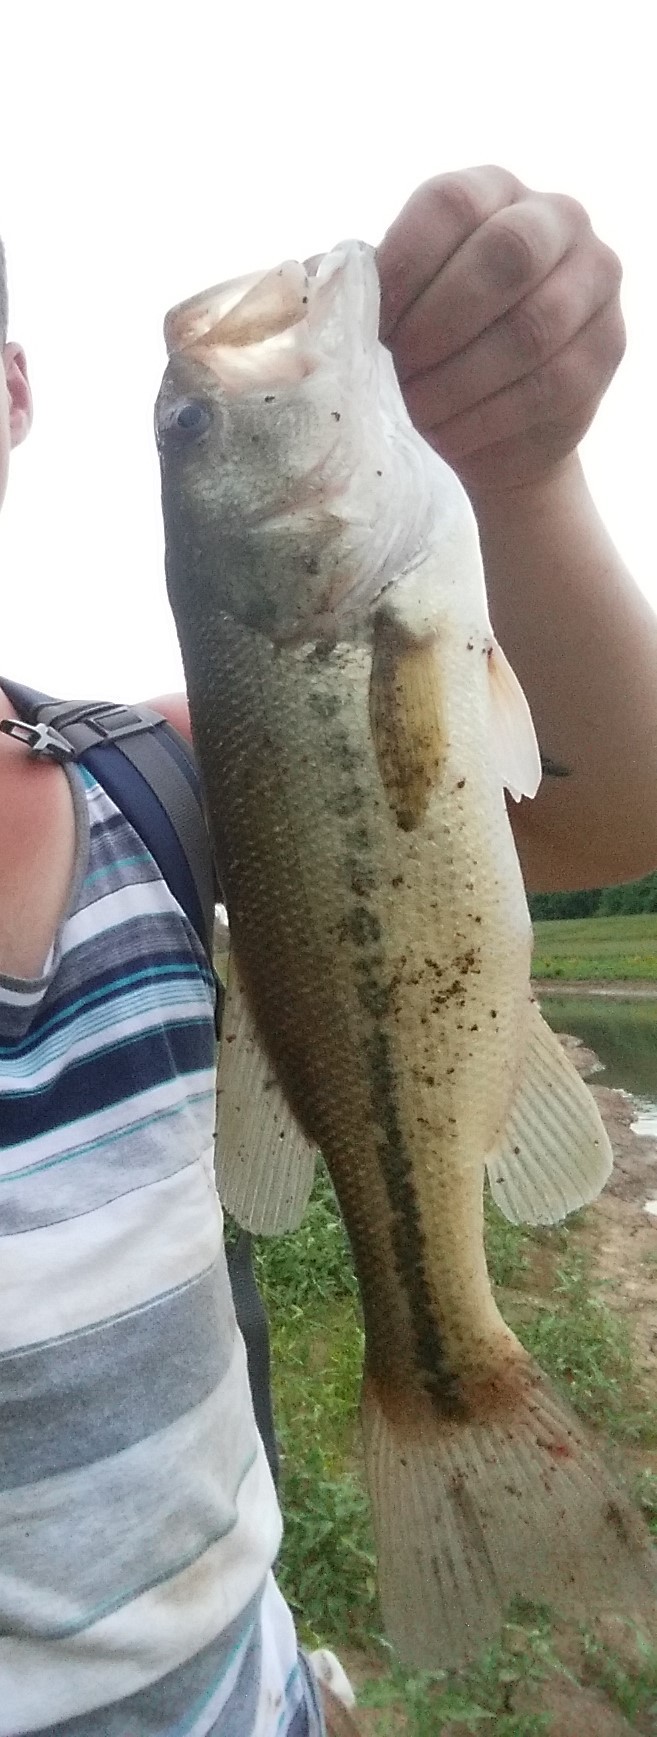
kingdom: Animalia
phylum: Chordata
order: Perciformes
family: Centrarchidae
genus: Micropterus
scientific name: Micropterus
